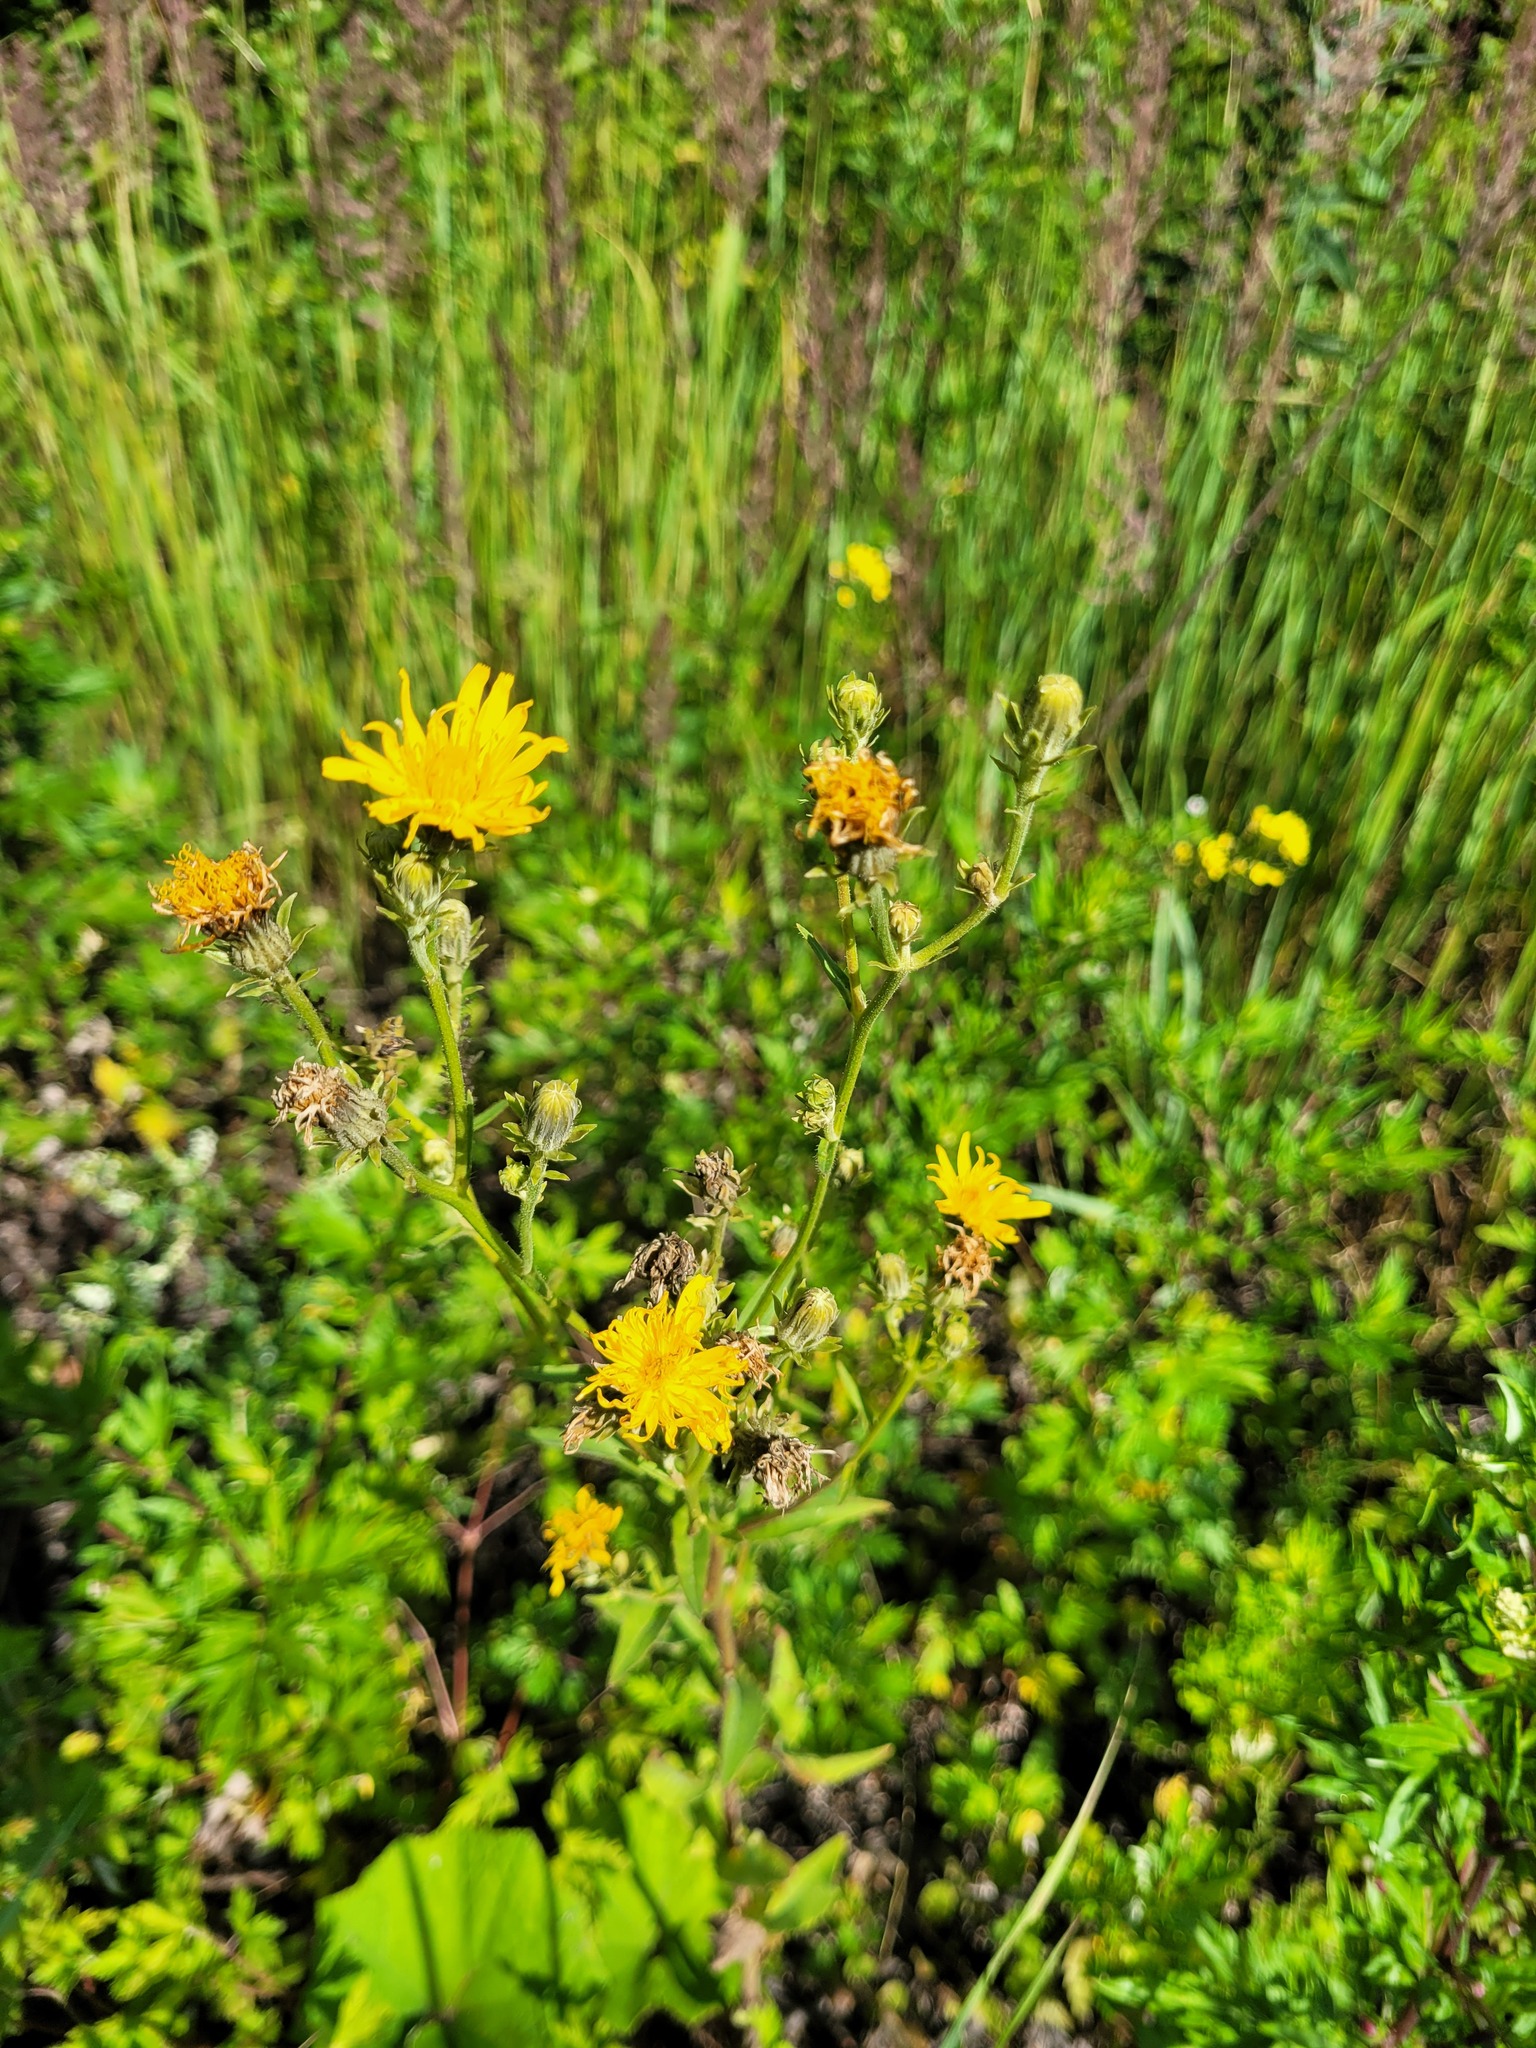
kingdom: Plantae
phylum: Tracheophyta
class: Magnoliopsida
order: Asterales
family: Asteraceae
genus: Picris
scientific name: Picris hieracioides
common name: Hawkweed oxtongue
